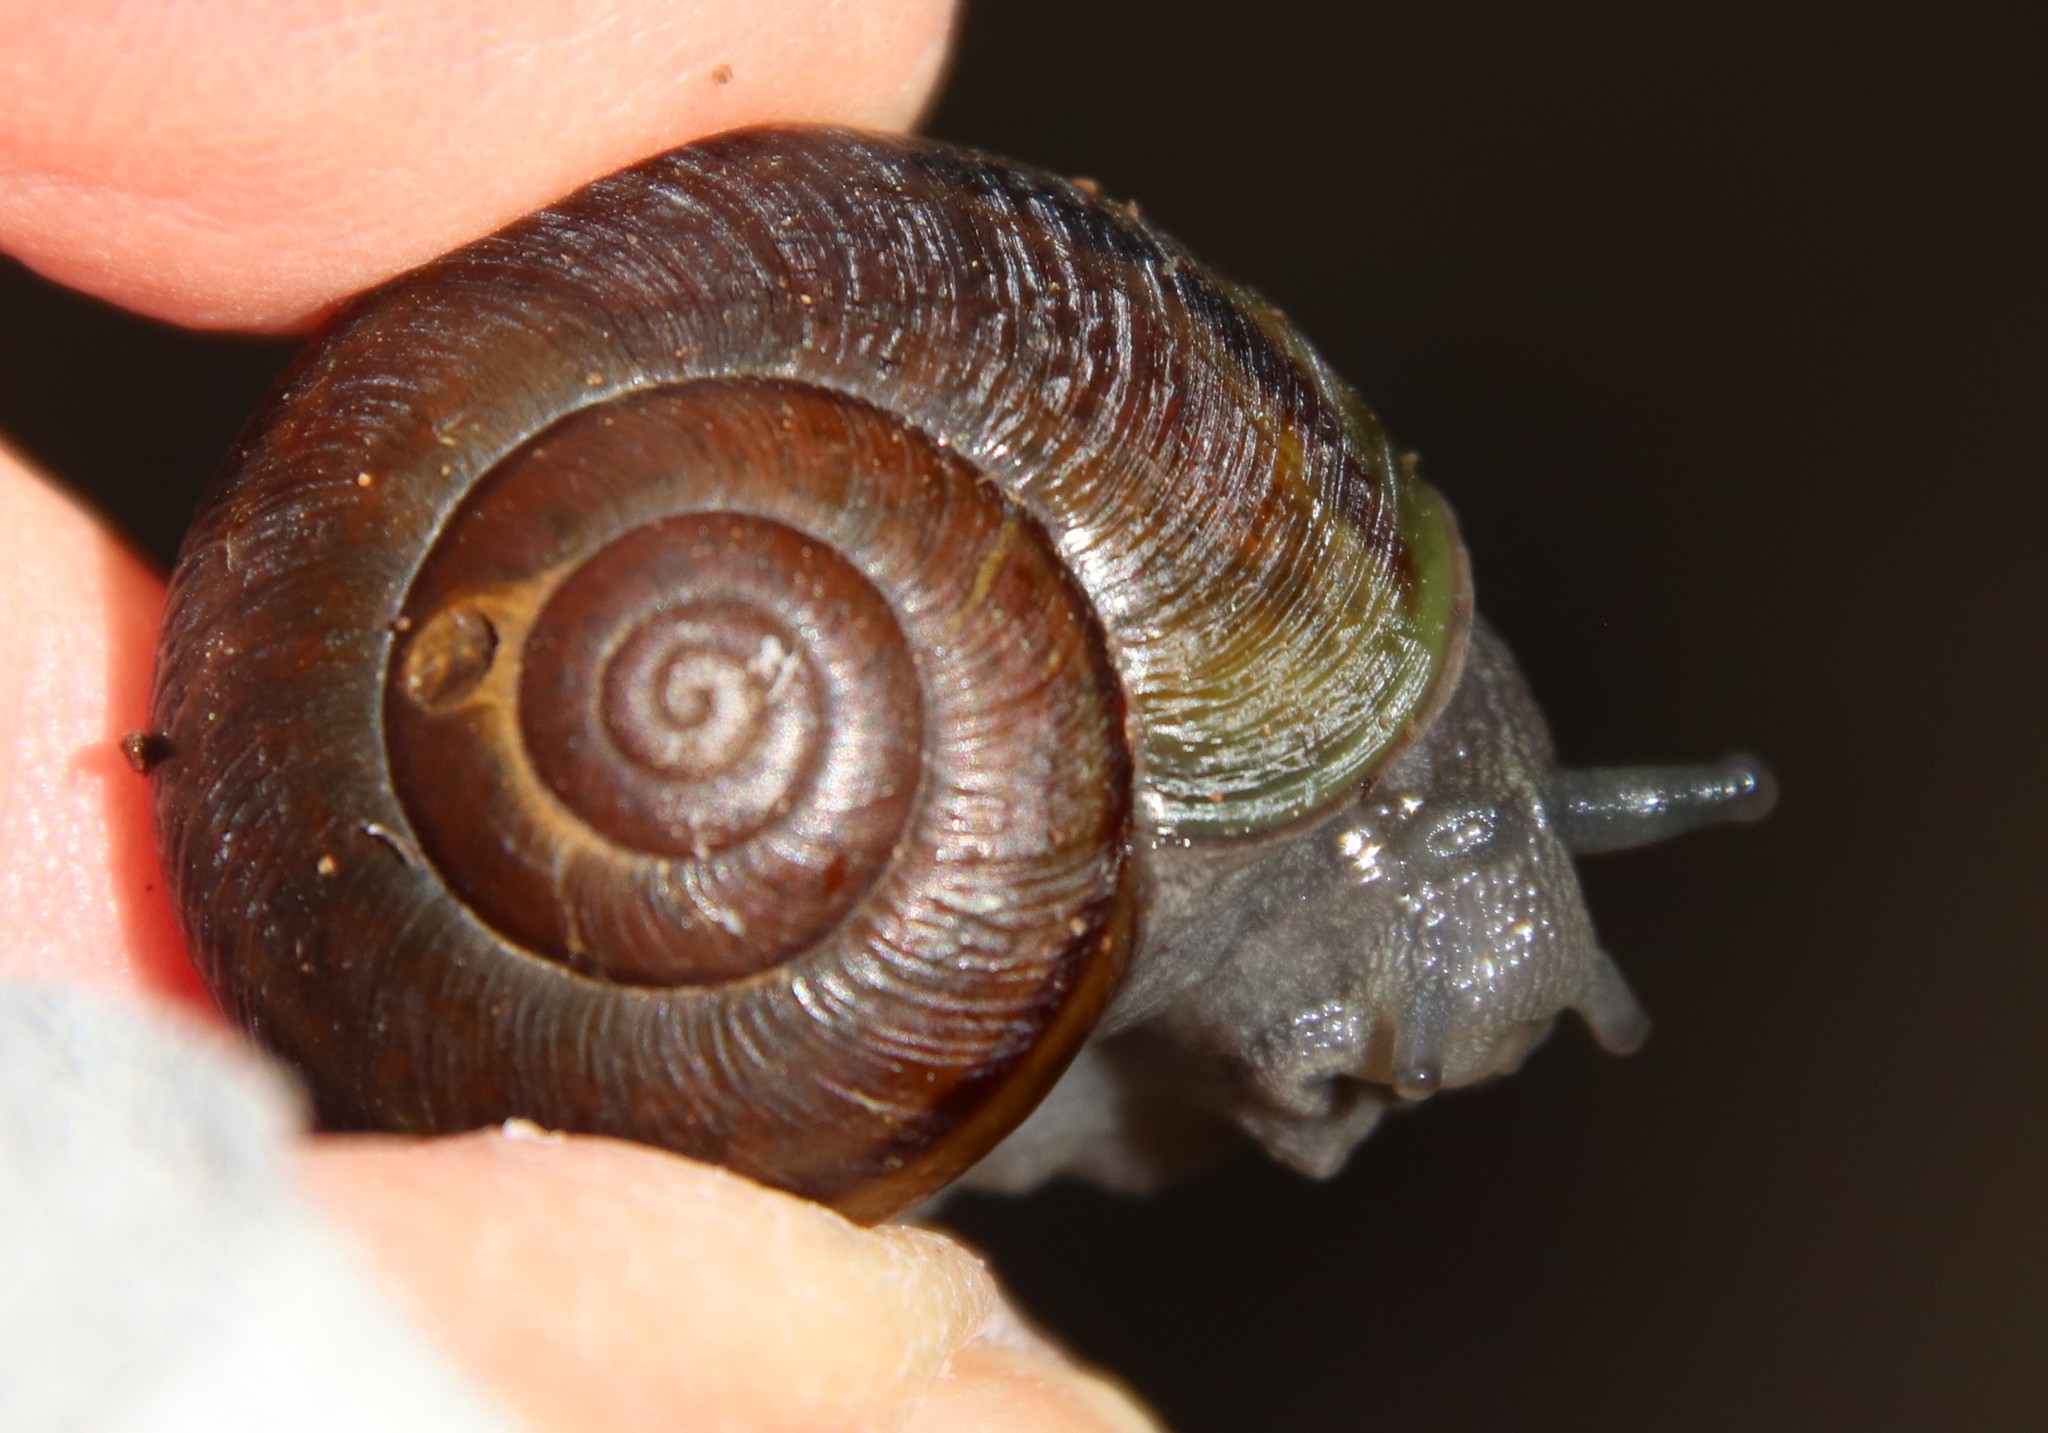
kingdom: Animalia
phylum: Mollusca
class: Gastropoda
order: Stylommatophora
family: Xanthonychidae
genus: Helminthoglypta
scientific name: Helminthoglypta tudiculata
